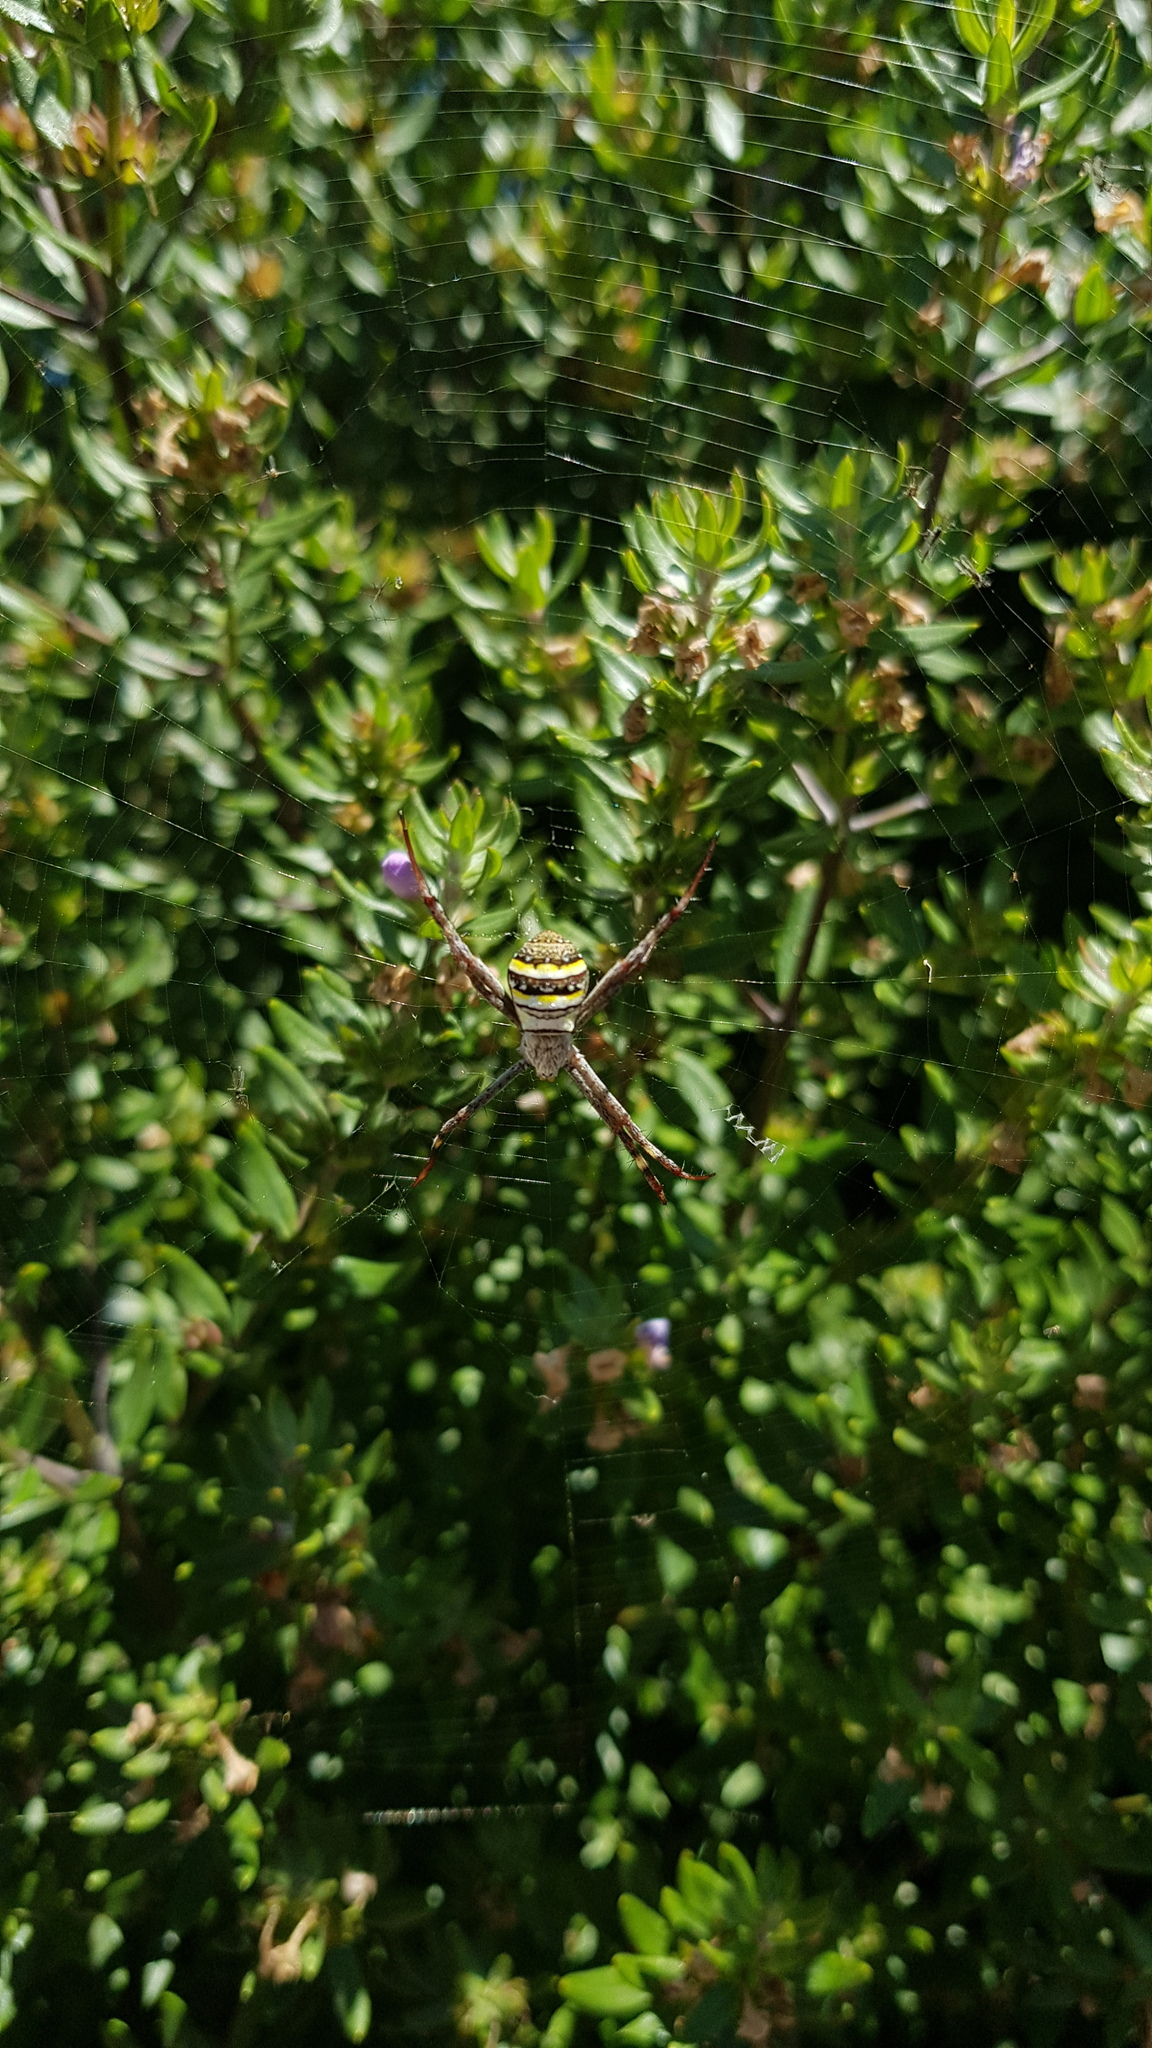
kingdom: Animalia
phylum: Arthropoda
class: Arachnida
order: Araneae
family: Araneidae
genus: Argiope
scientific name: Argiope keyserlingi
